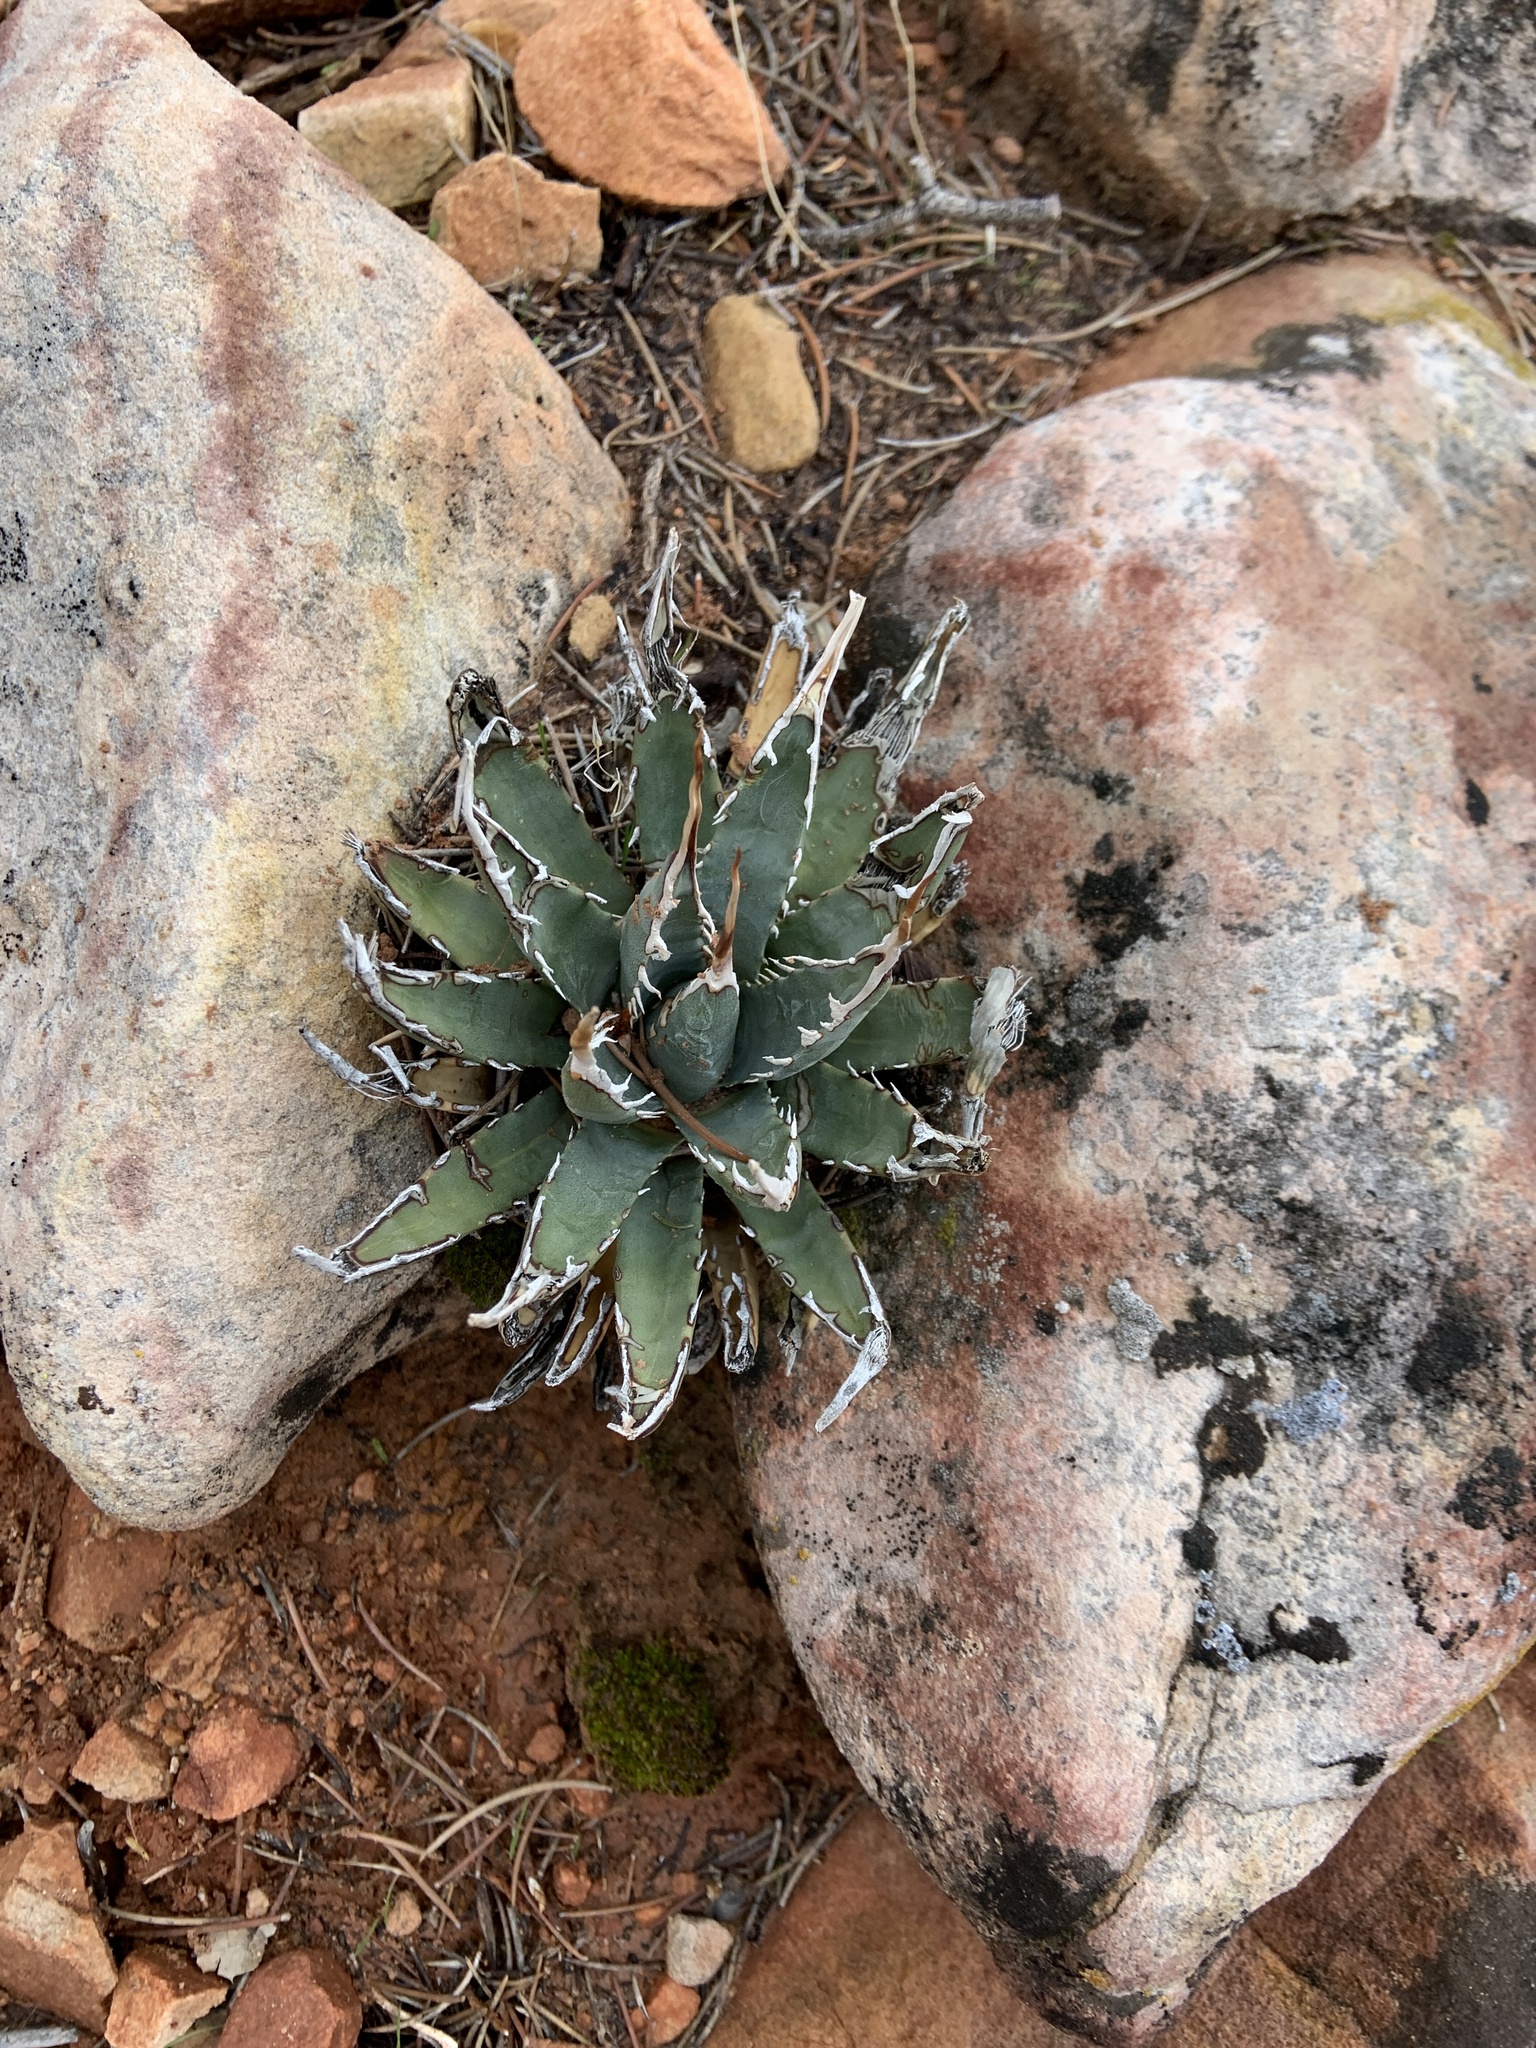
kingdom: Plantae
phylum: Tracheophyta
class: Liliopsida
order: Asparagales
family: Asparagaceae
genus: Agave
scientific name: Agave utahensis
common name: Utah agave
